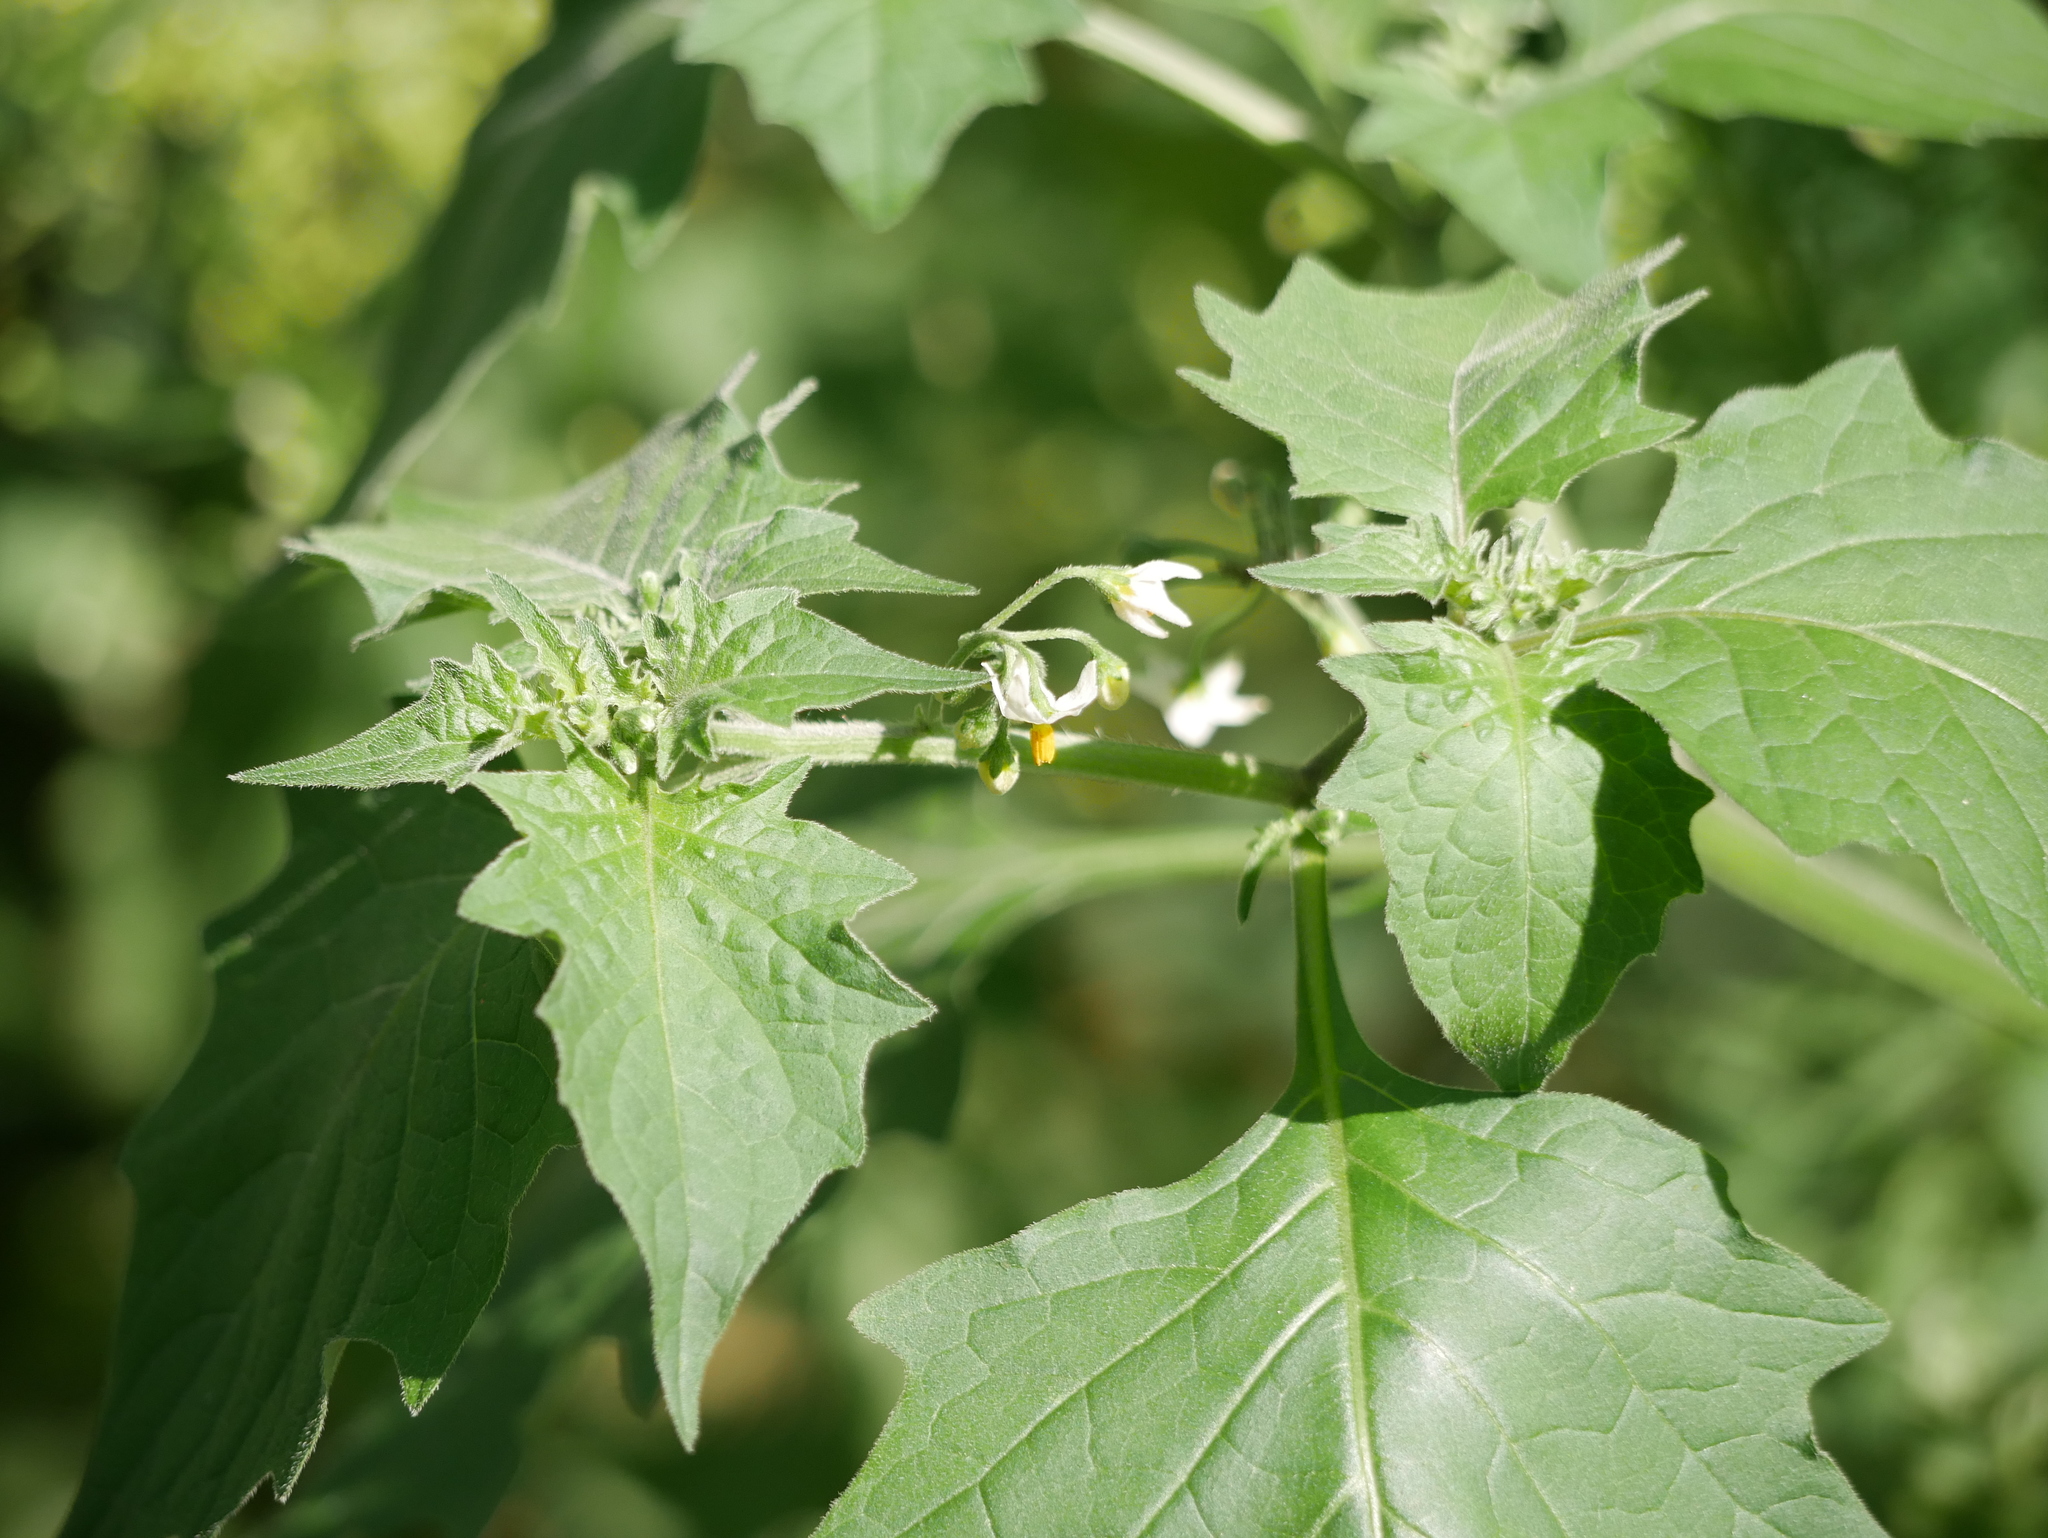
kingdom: Plantae
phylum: Tracheophyta
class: Magnoliopsida
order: Solanales
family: Solanaceae
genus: Solanum
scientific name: Solanum nigrum
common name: Black nightshade
